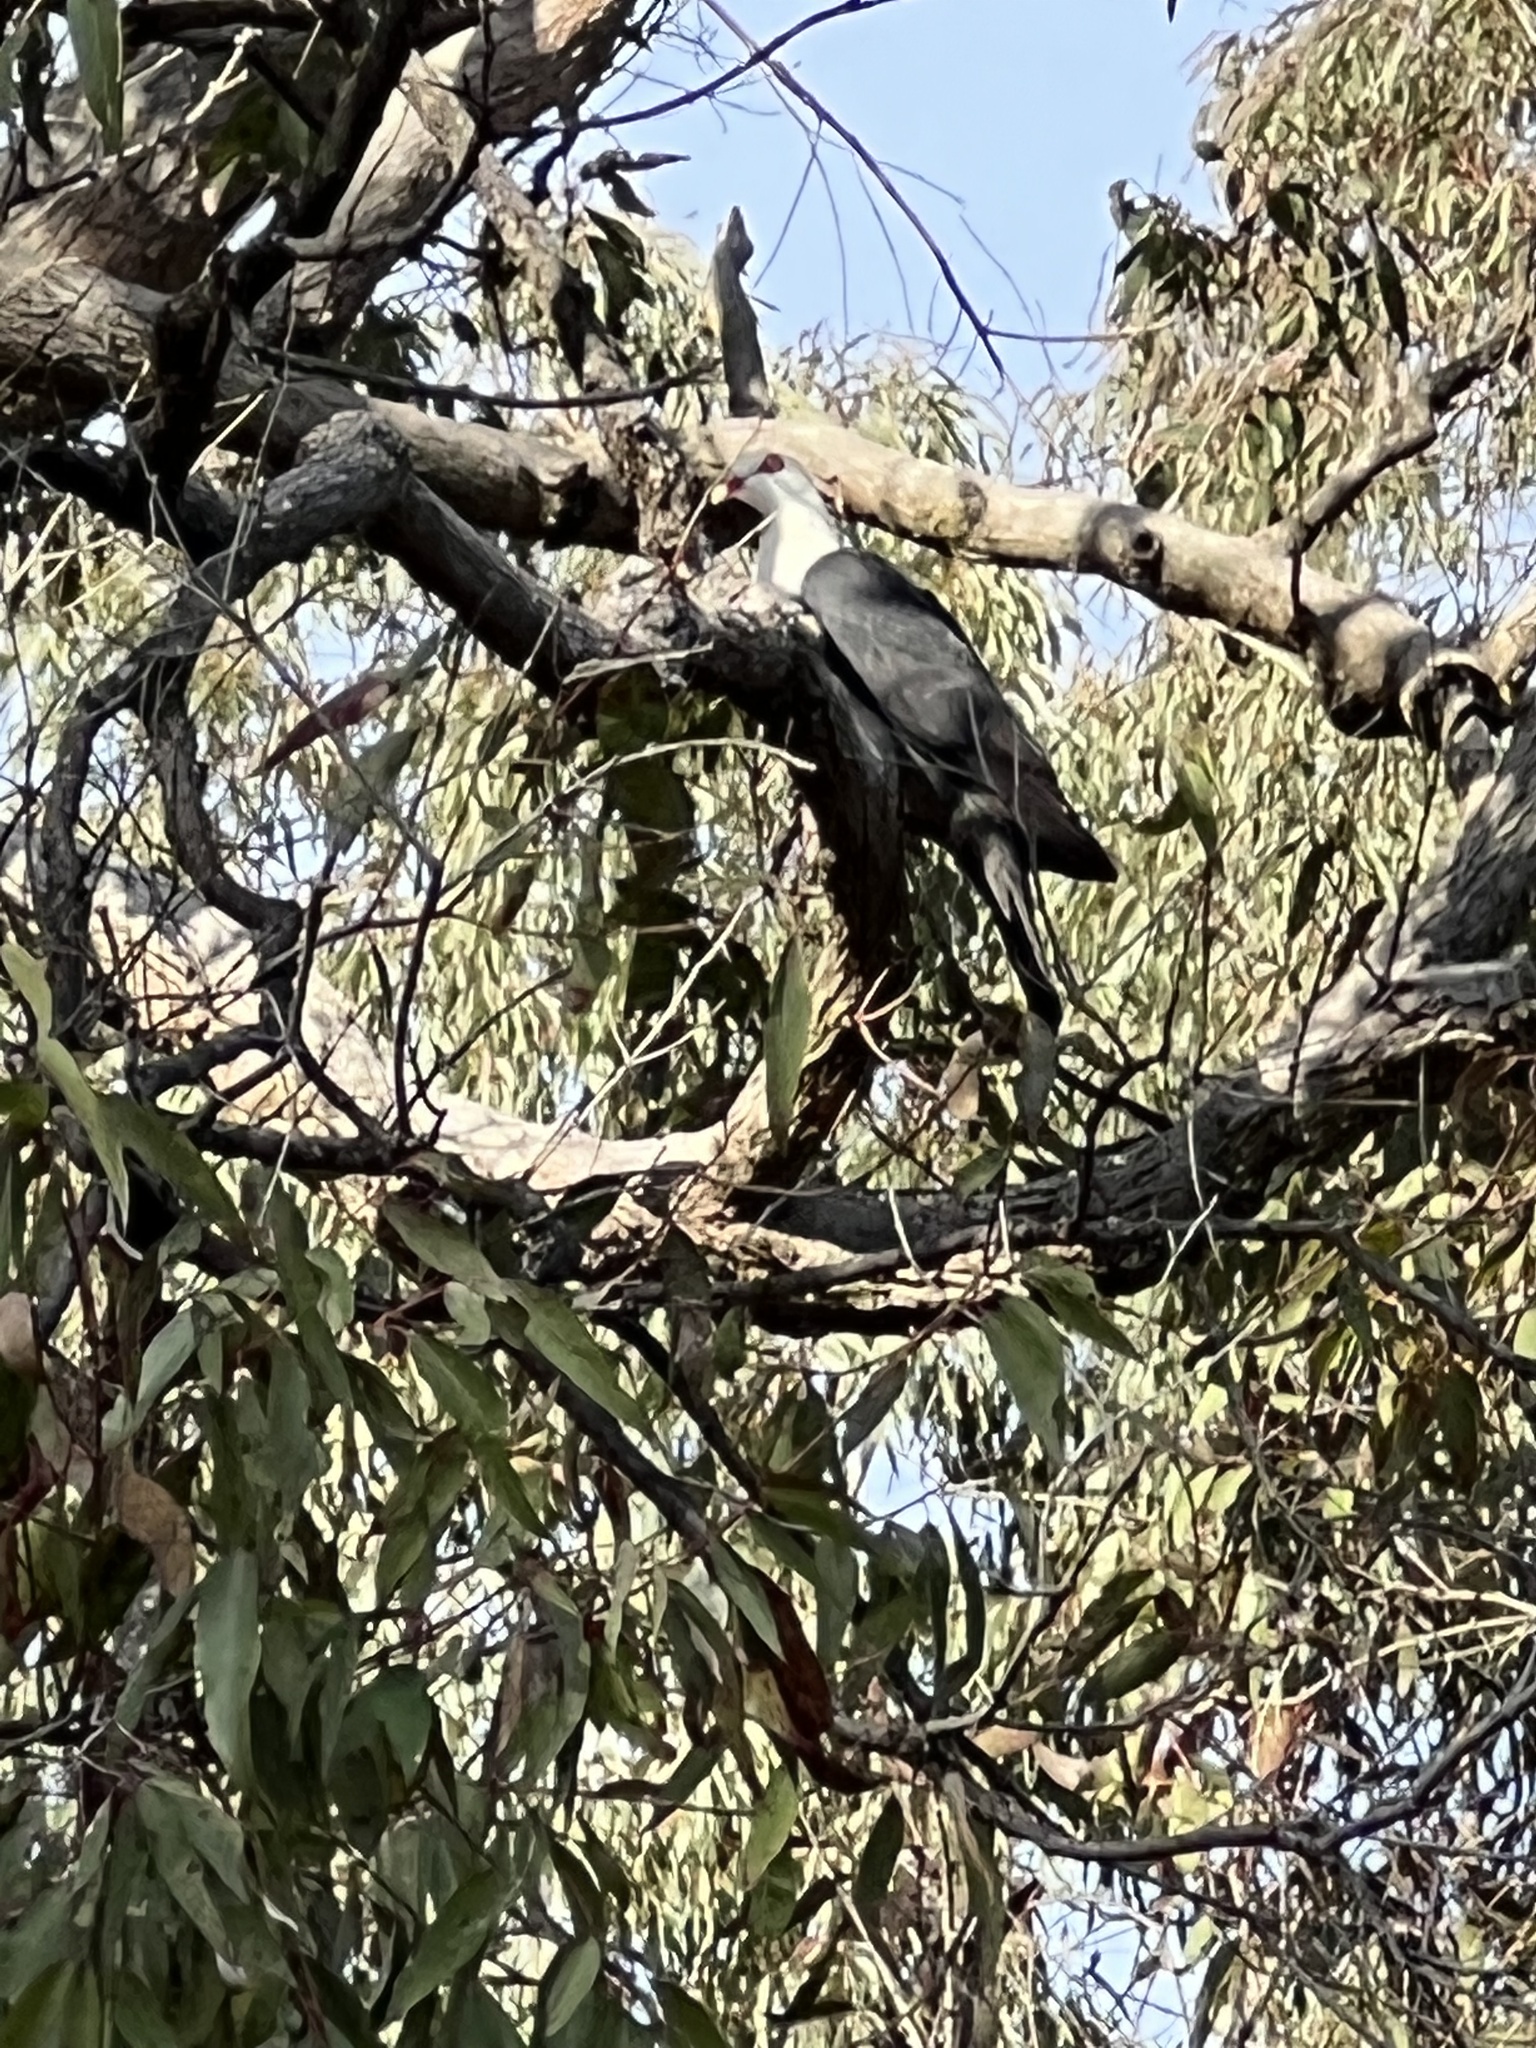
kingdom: Animalia
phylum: Chordata
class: Aves
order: Columbiformes
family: Columbidae
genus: Columba
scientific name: Columba leucomela
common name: White-headed pigeon
